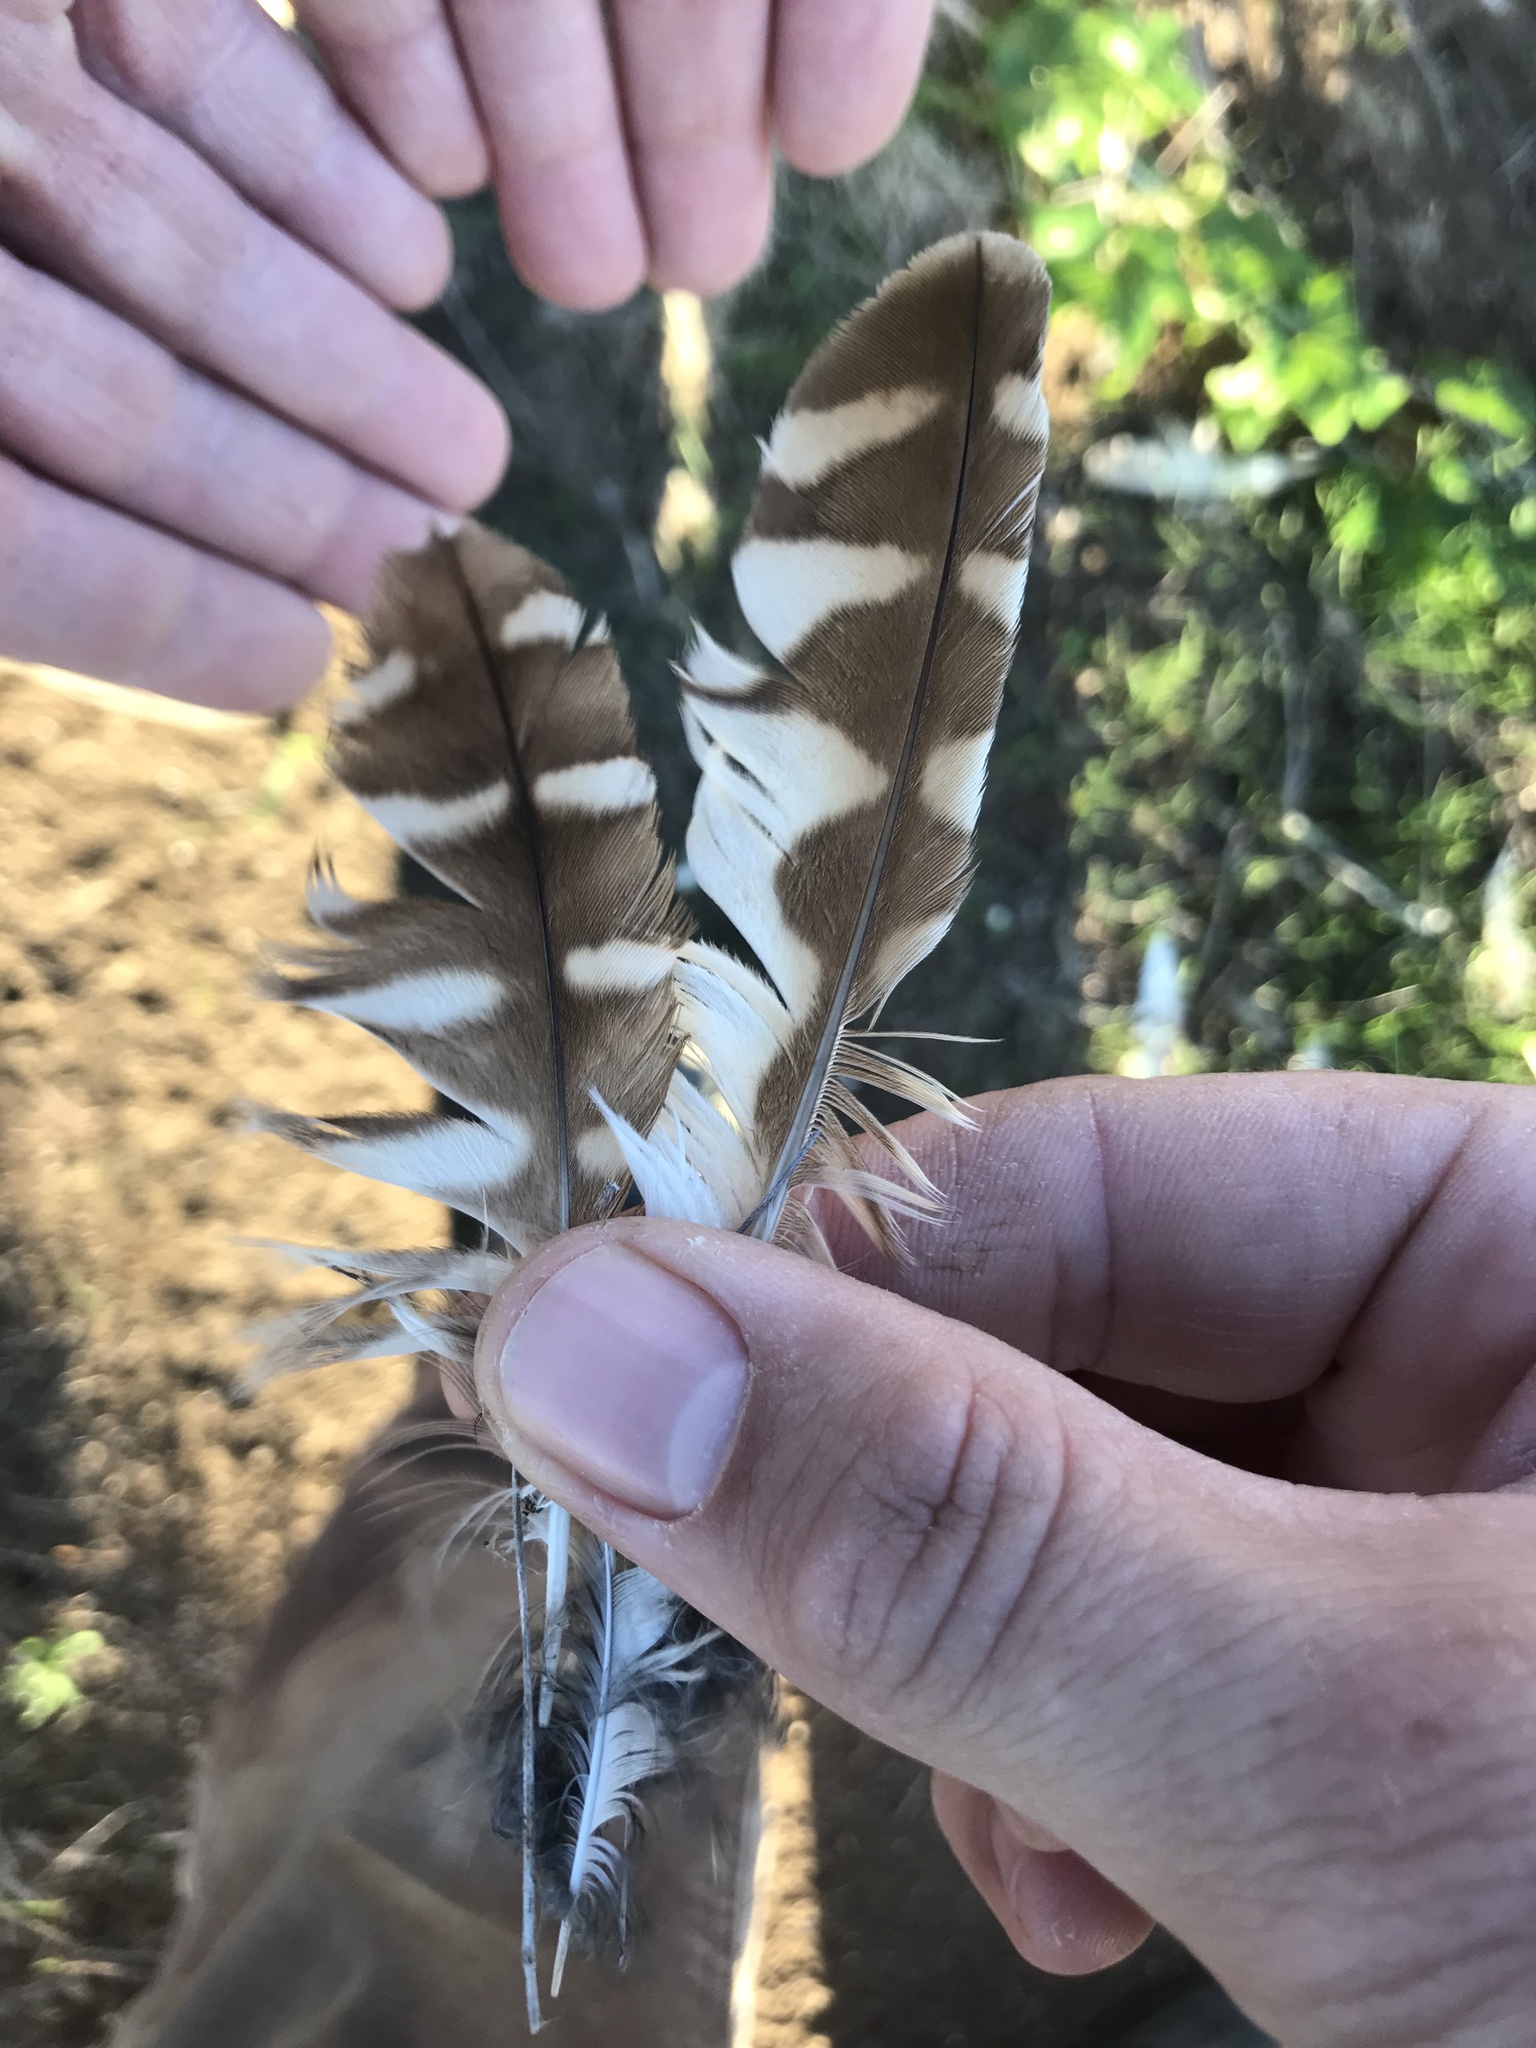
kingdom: Animalia
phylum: Chordata
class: Aves
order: Strigiformes
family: Strigidae
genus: Athene
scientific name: Athene cunicularia
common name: Burrowing owl
